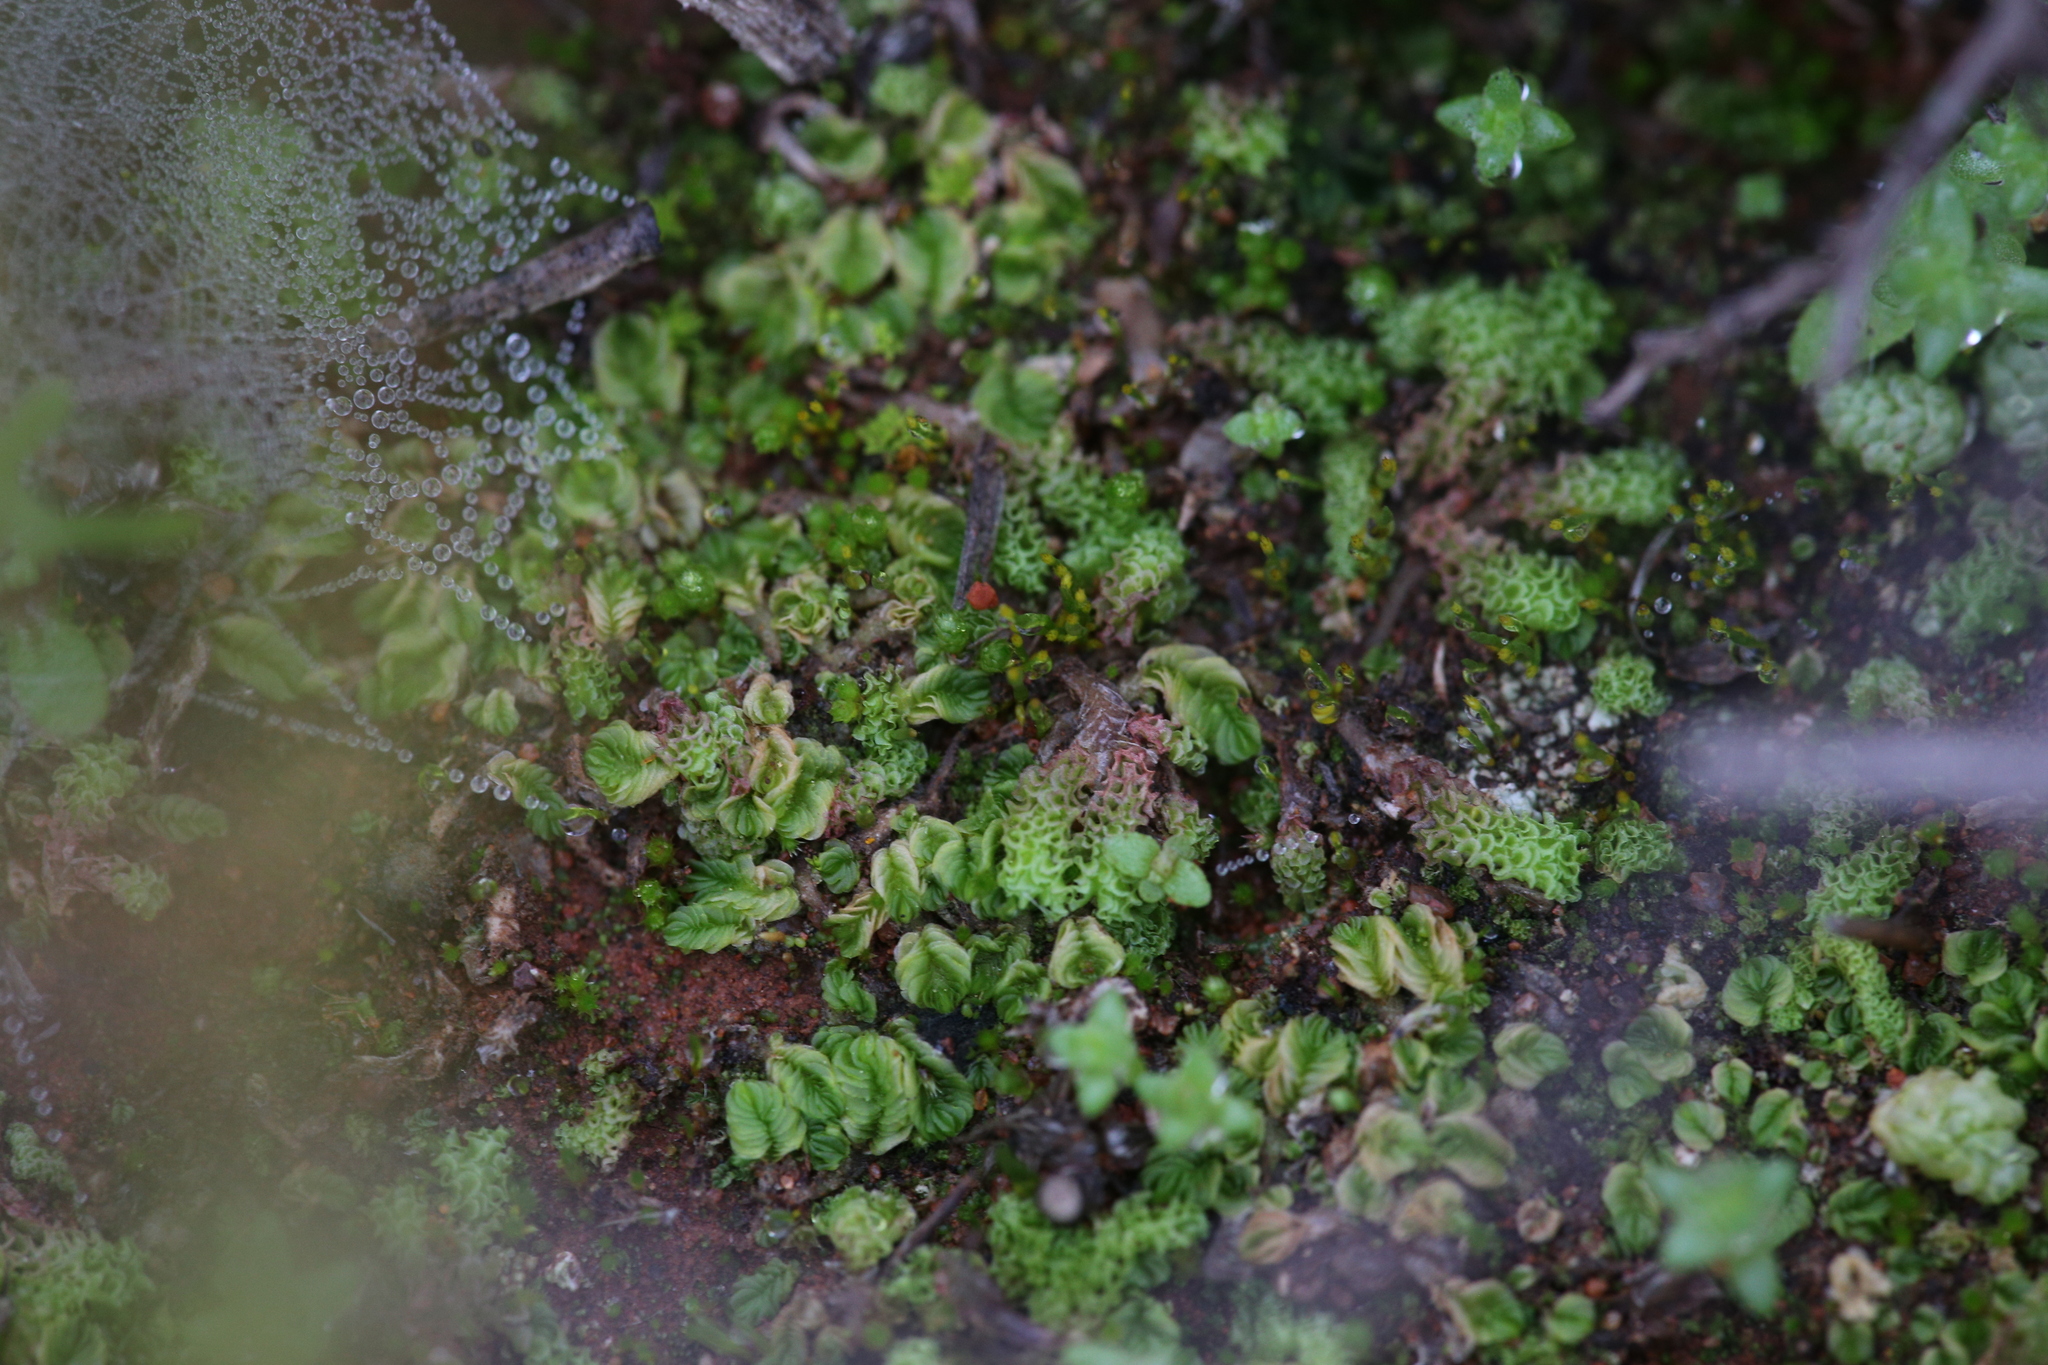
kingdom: Plantae
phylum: Marchantiophyta
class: Jungermanniopsida
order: Jungermanniales
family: Acrobolbaceae
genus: Lethocolea
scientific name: Lethocolea pansa
